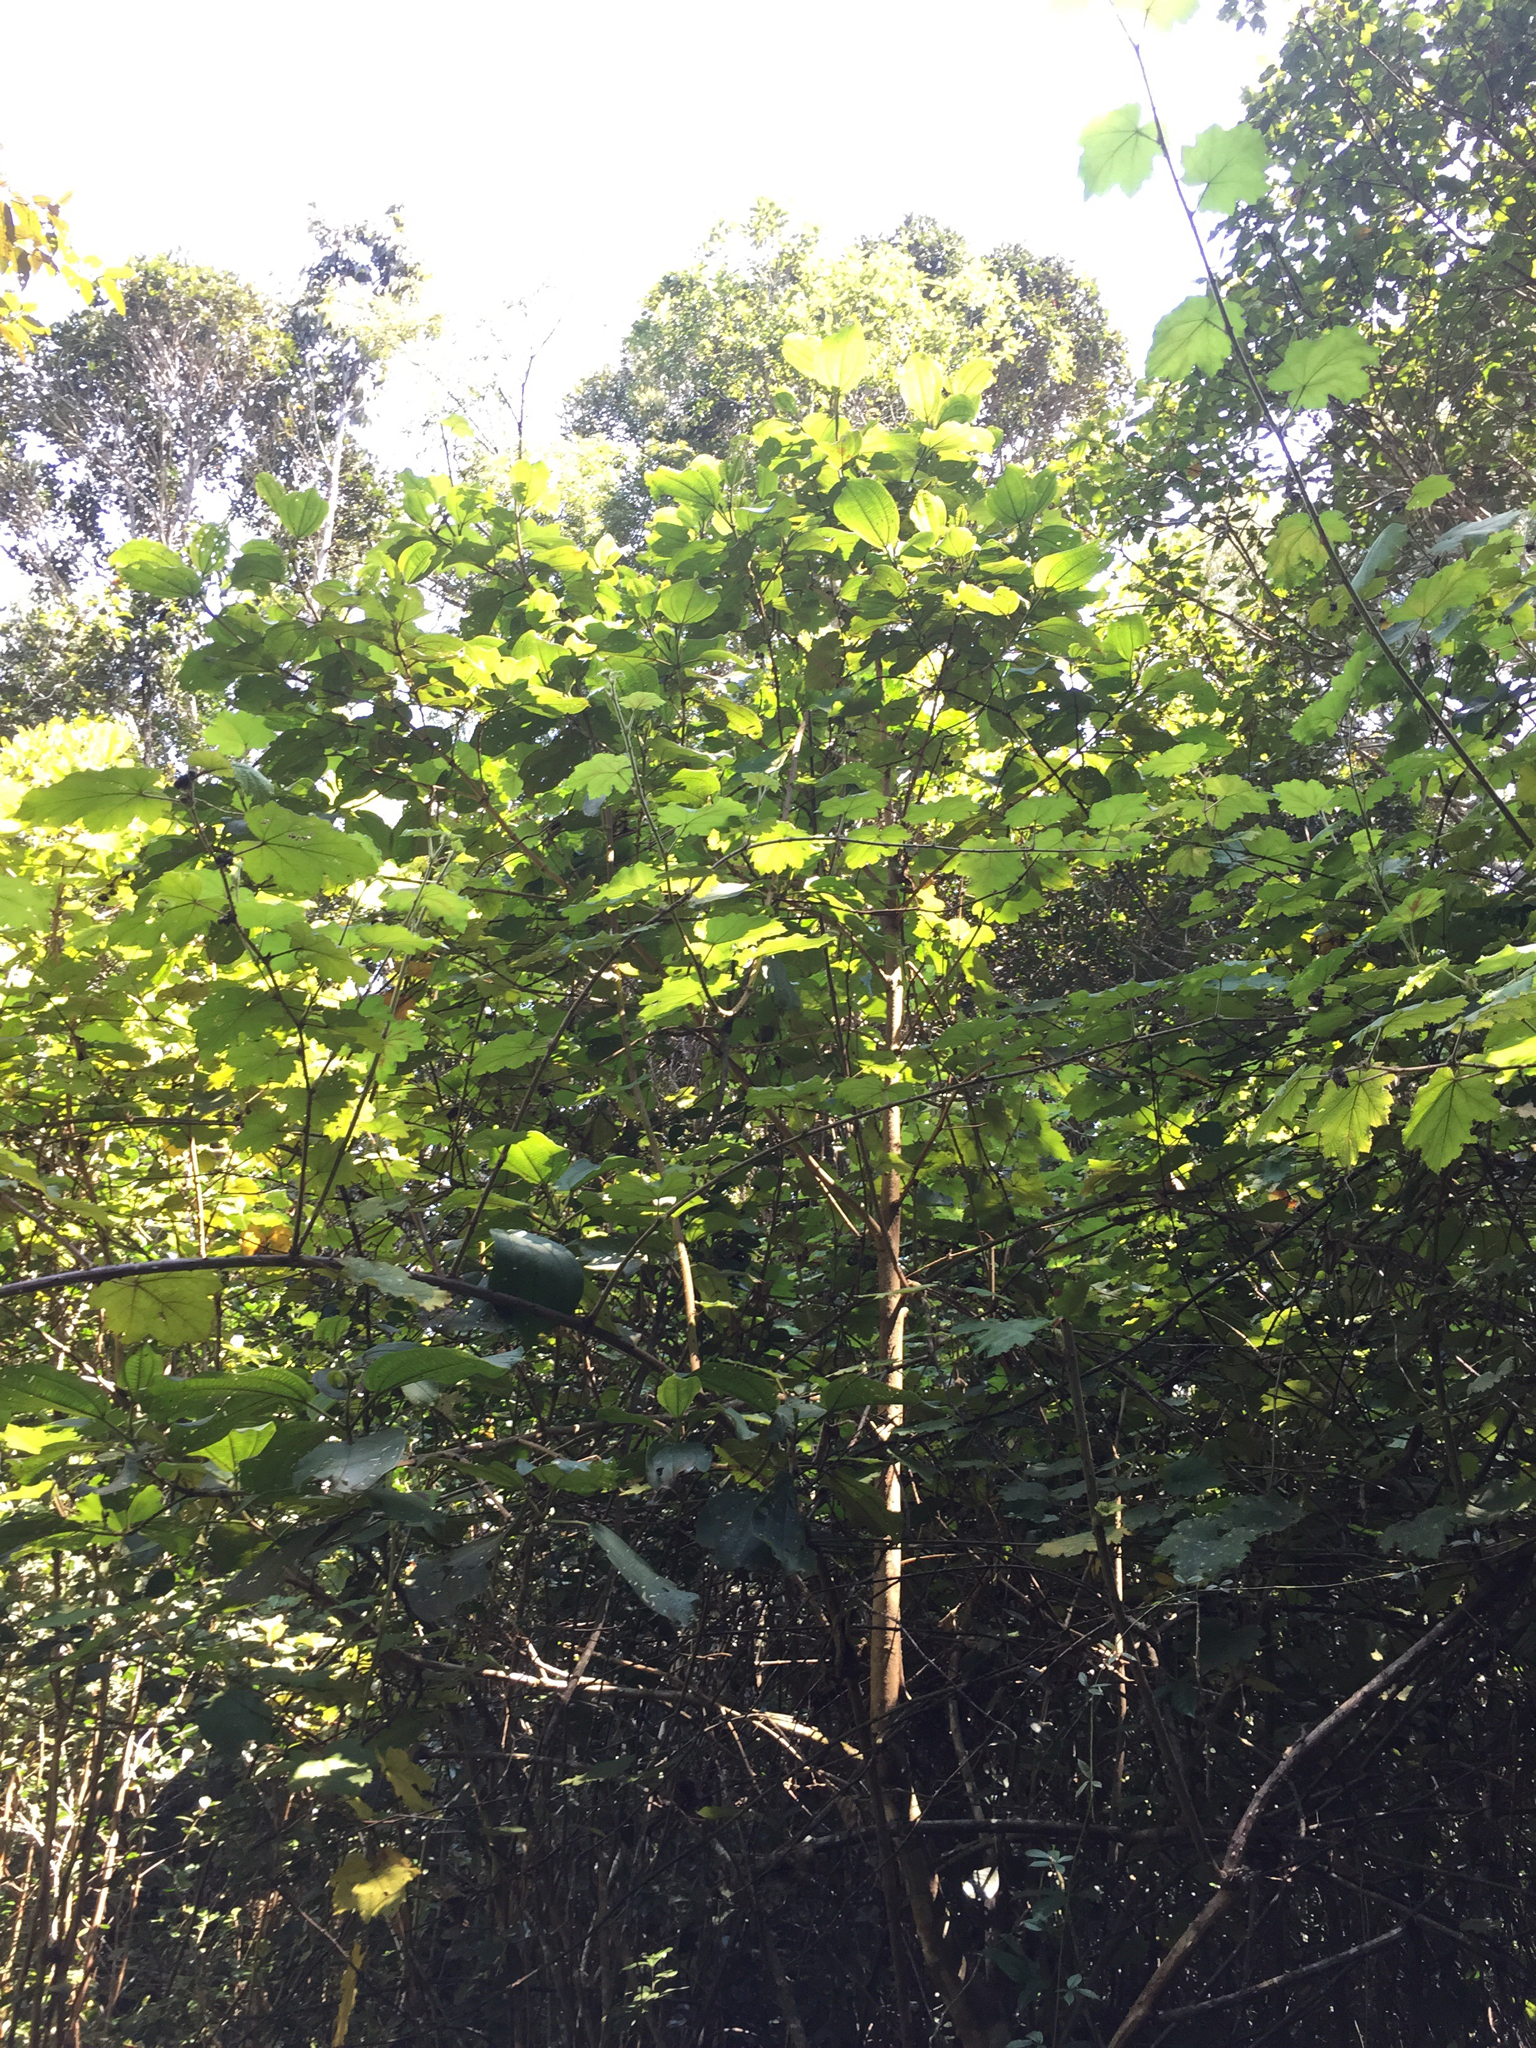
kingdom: Plantae
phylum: Tracheophyta
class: Magnoliopsida
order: Myrtales
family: Melastomataceae
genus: Dichaetanthera
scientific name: Dichaetanthera cordifolia
